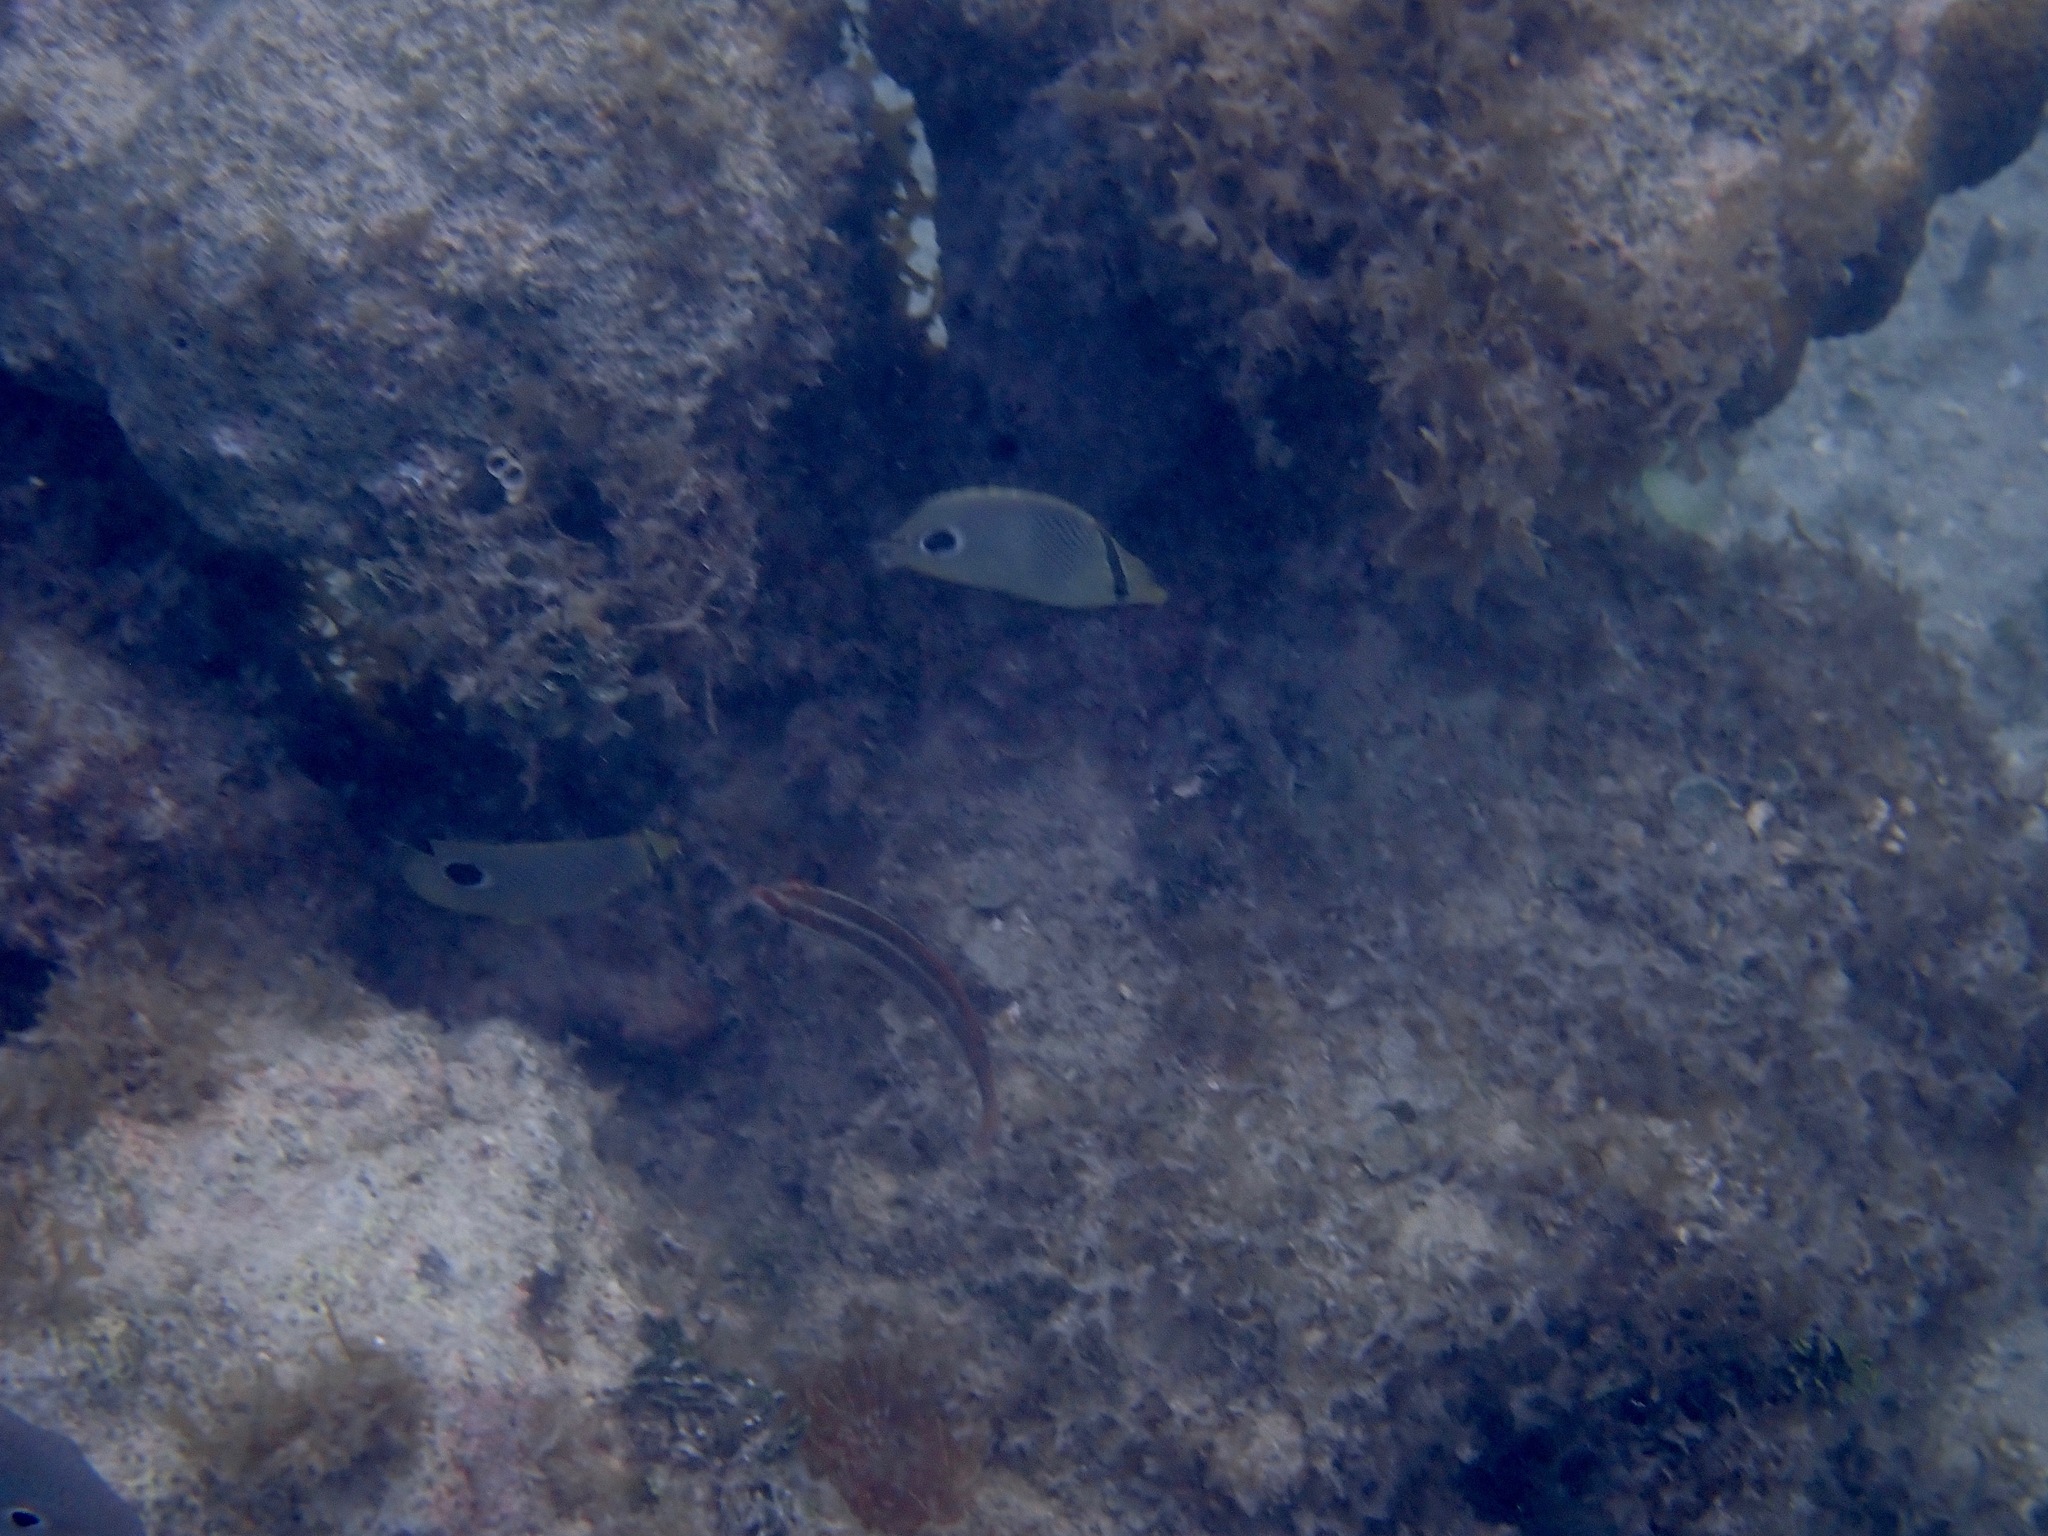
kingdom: Animalia
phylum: Chordata
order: Perciformes
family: Chaetodontidae
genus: Chaetodon
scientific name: Chaetodon capistratus
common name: Kete
